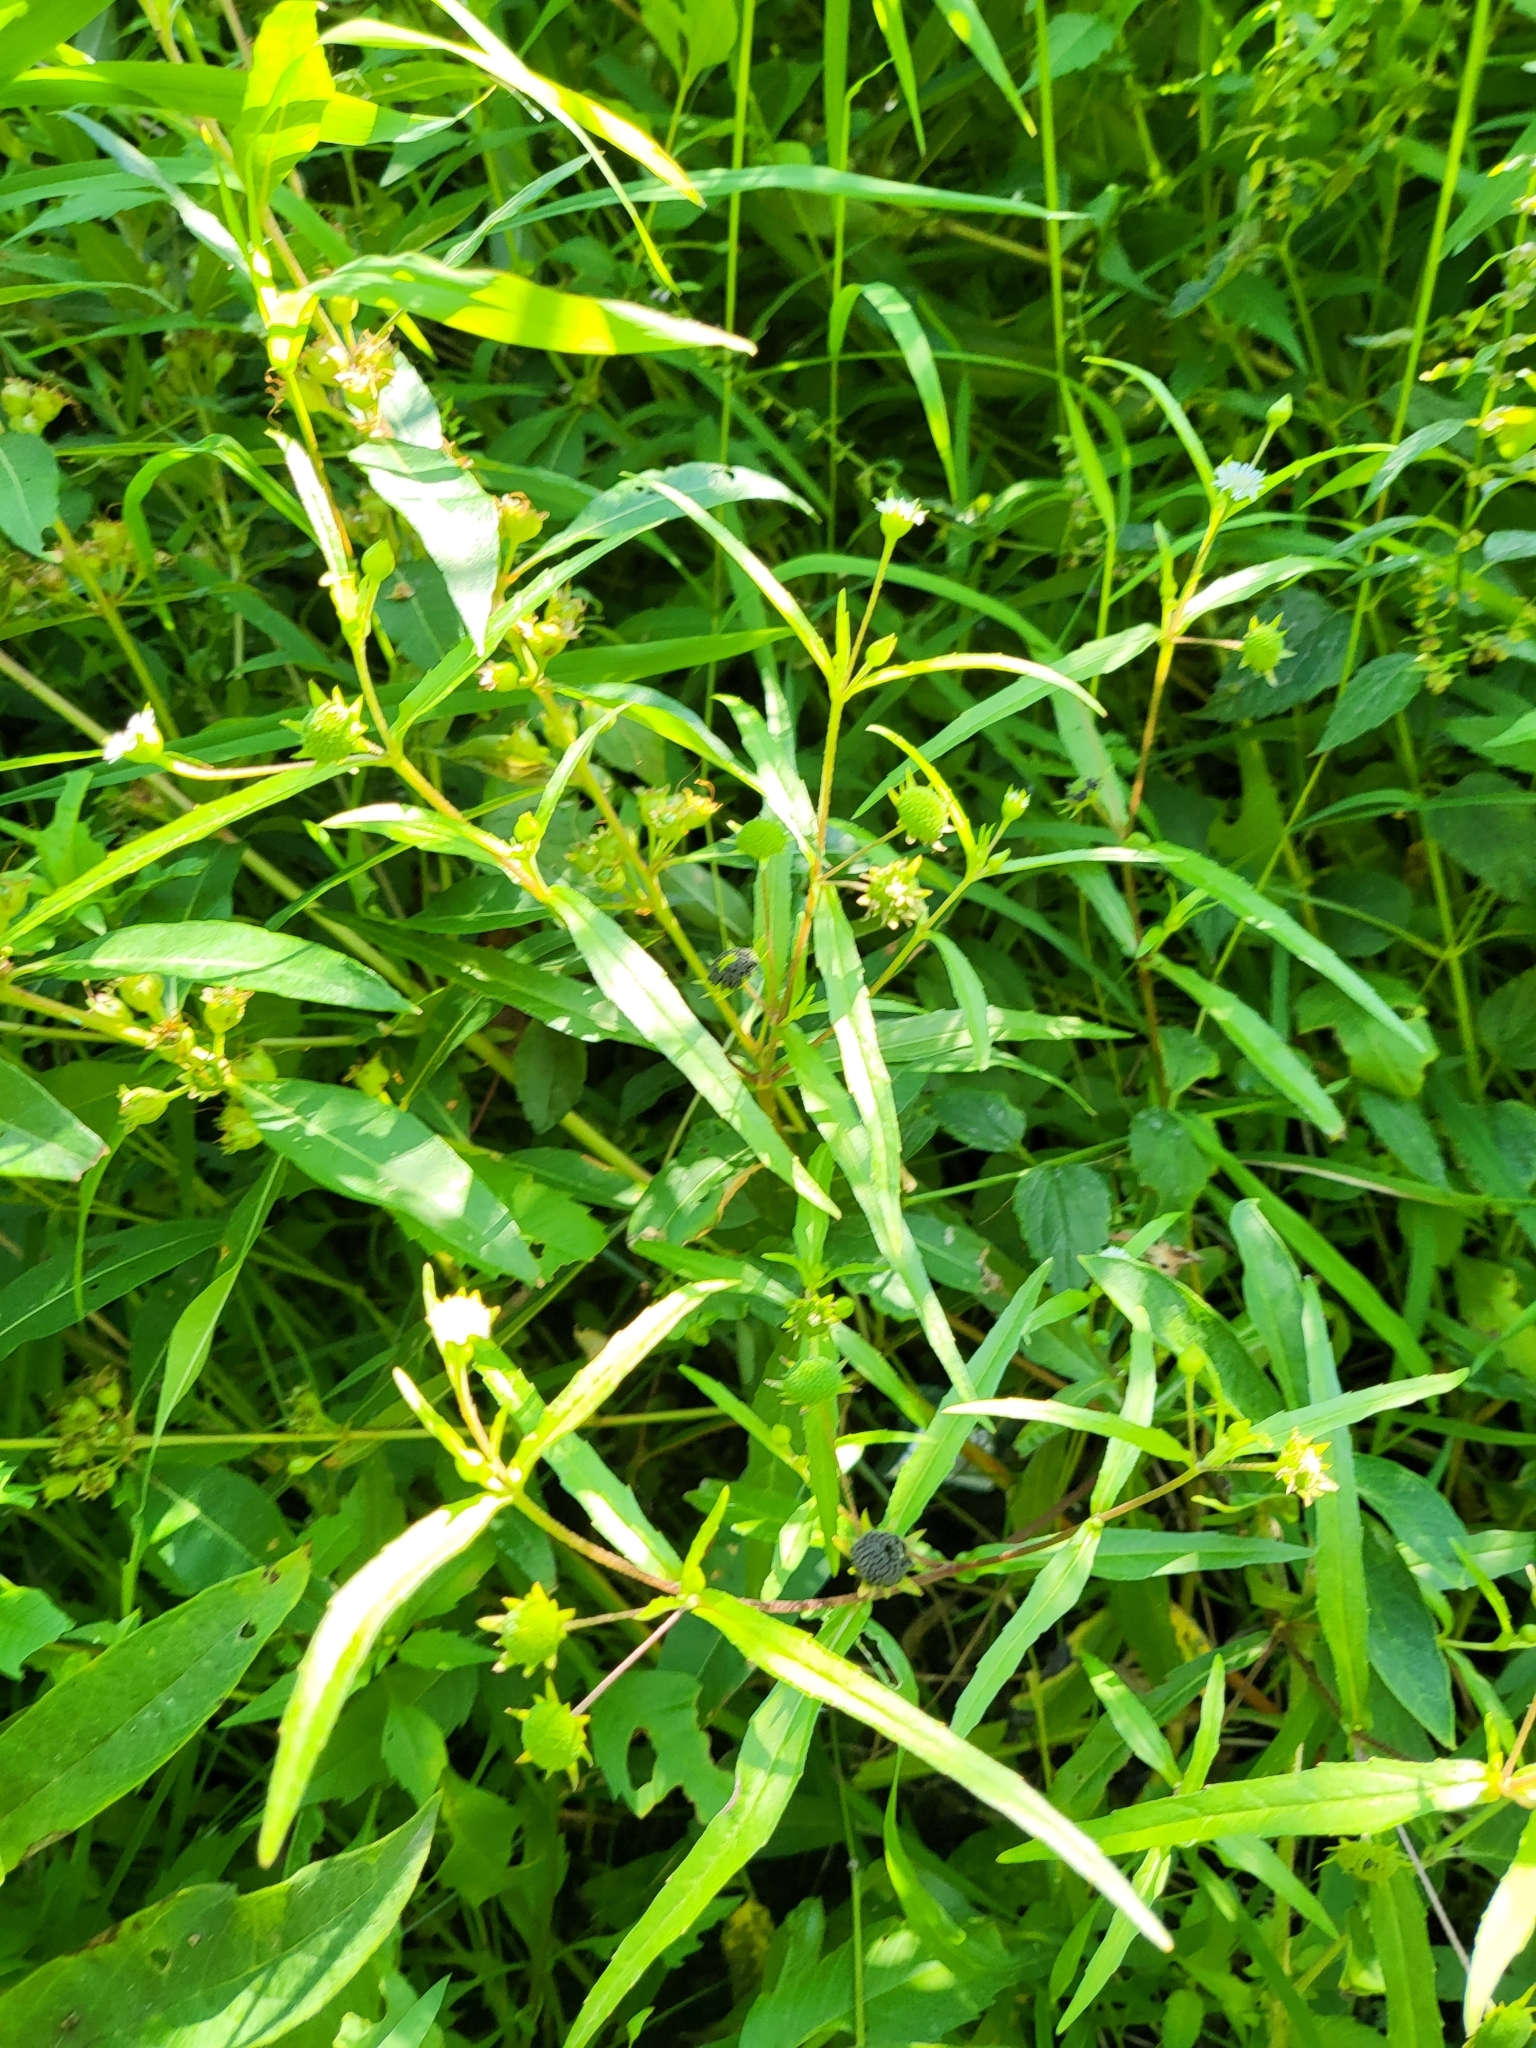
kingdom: Plantae
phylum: Tracheophyta
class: Magnoliopsida
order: Asterales
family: Asteraceae
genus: Eclipta
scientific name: Eclipta prostrata
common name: False daisy
